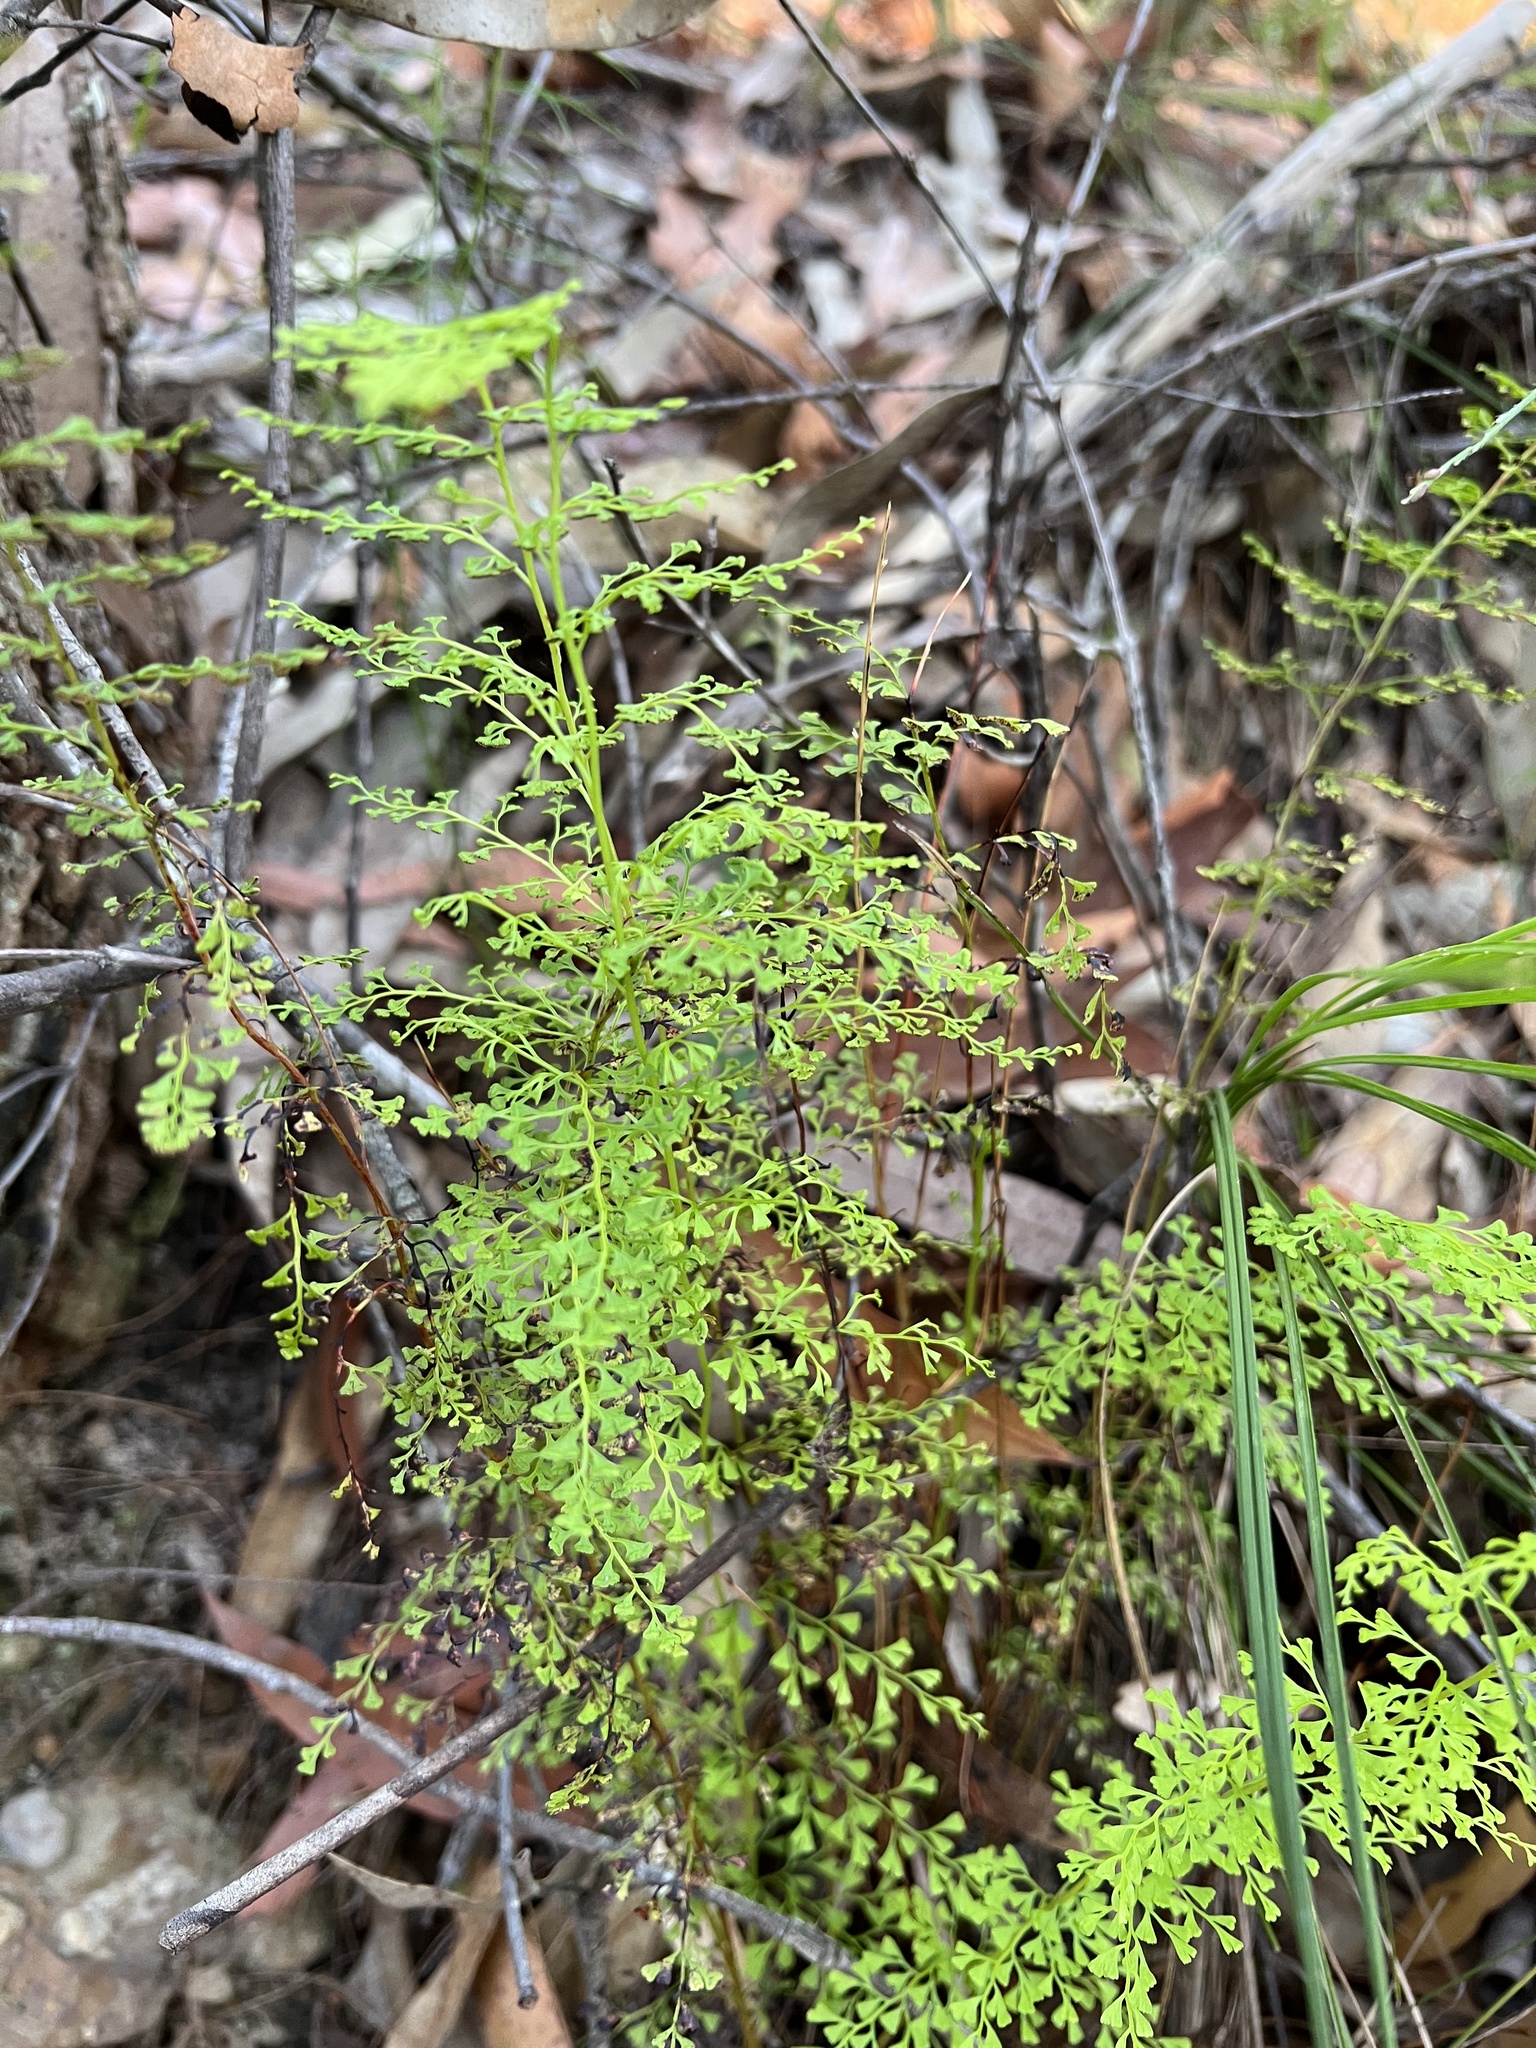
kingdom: Plantae
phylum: Tracheophyta
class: Polypodiopsida
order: Polypodiales
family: Lindsaeaceae
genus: Lindsaea
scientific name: Lindsaea microphylla
